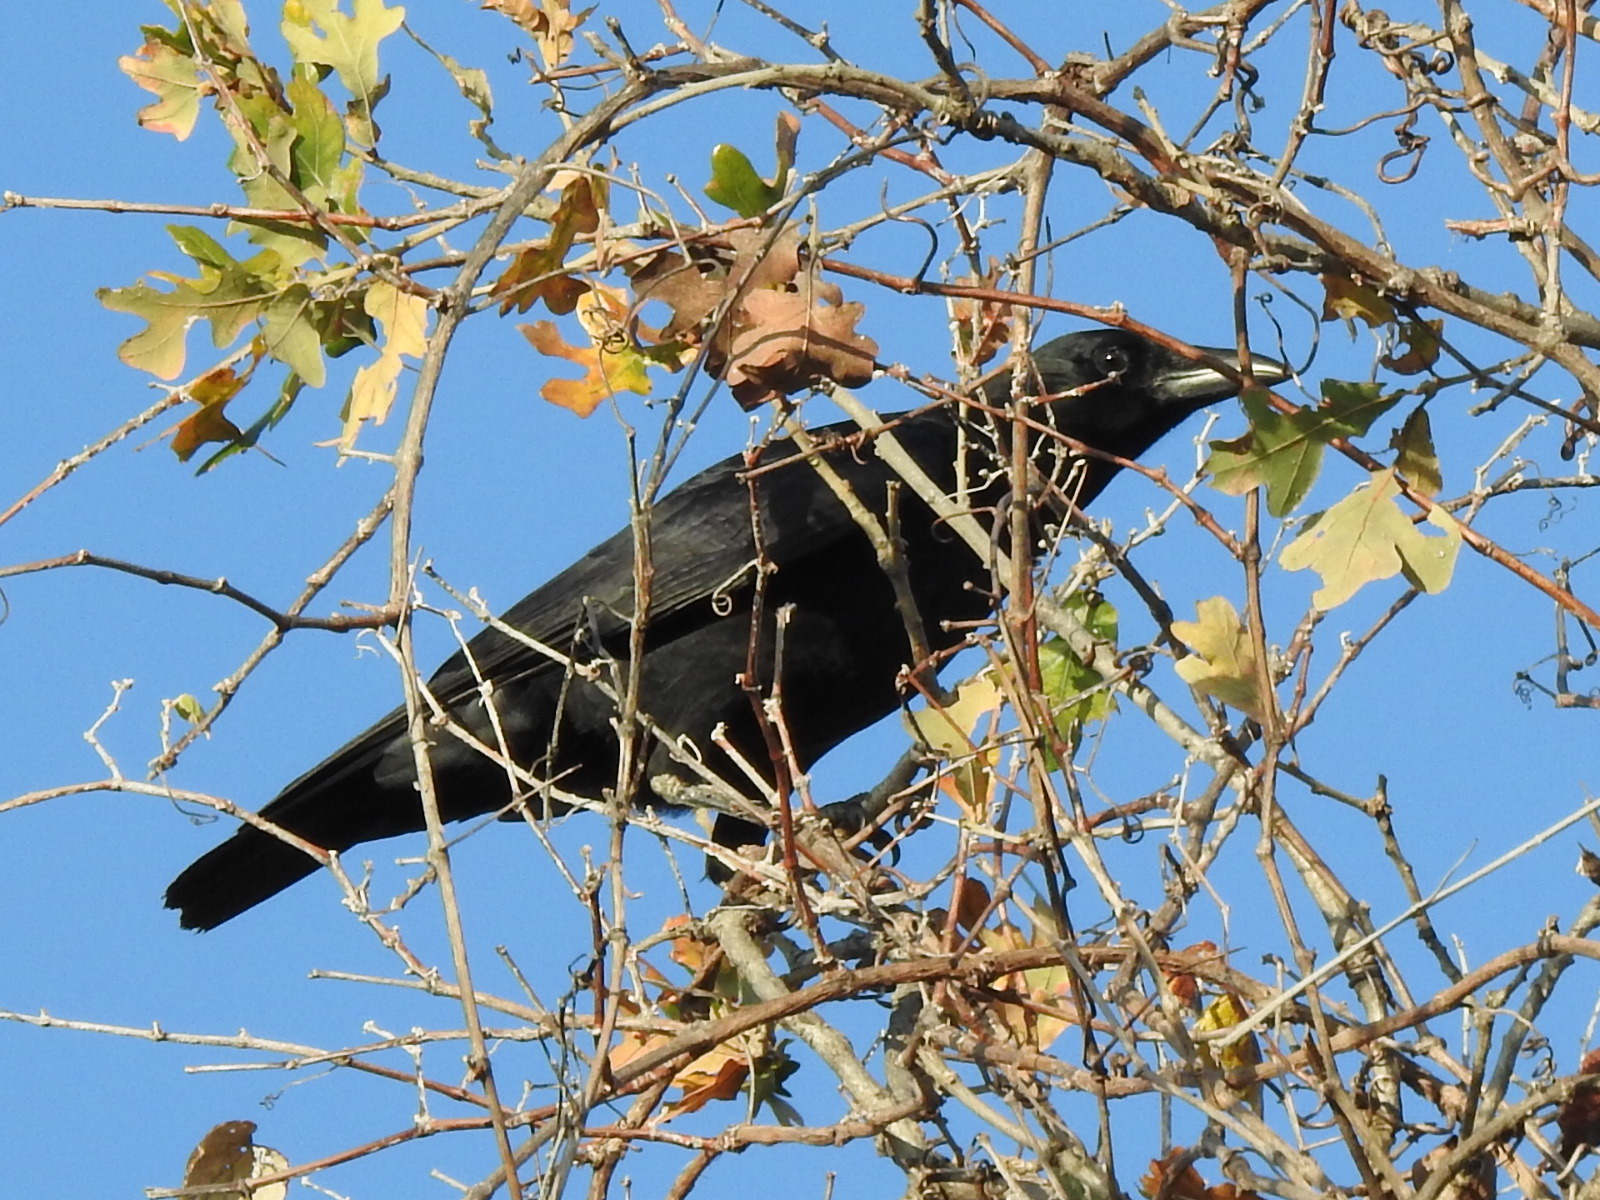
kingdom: Animalia
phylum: Chordata
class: Aves
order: Passeriformes
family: Corvidae
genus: Corvus
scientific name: Corvus brachyrhynchos
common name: American crow
